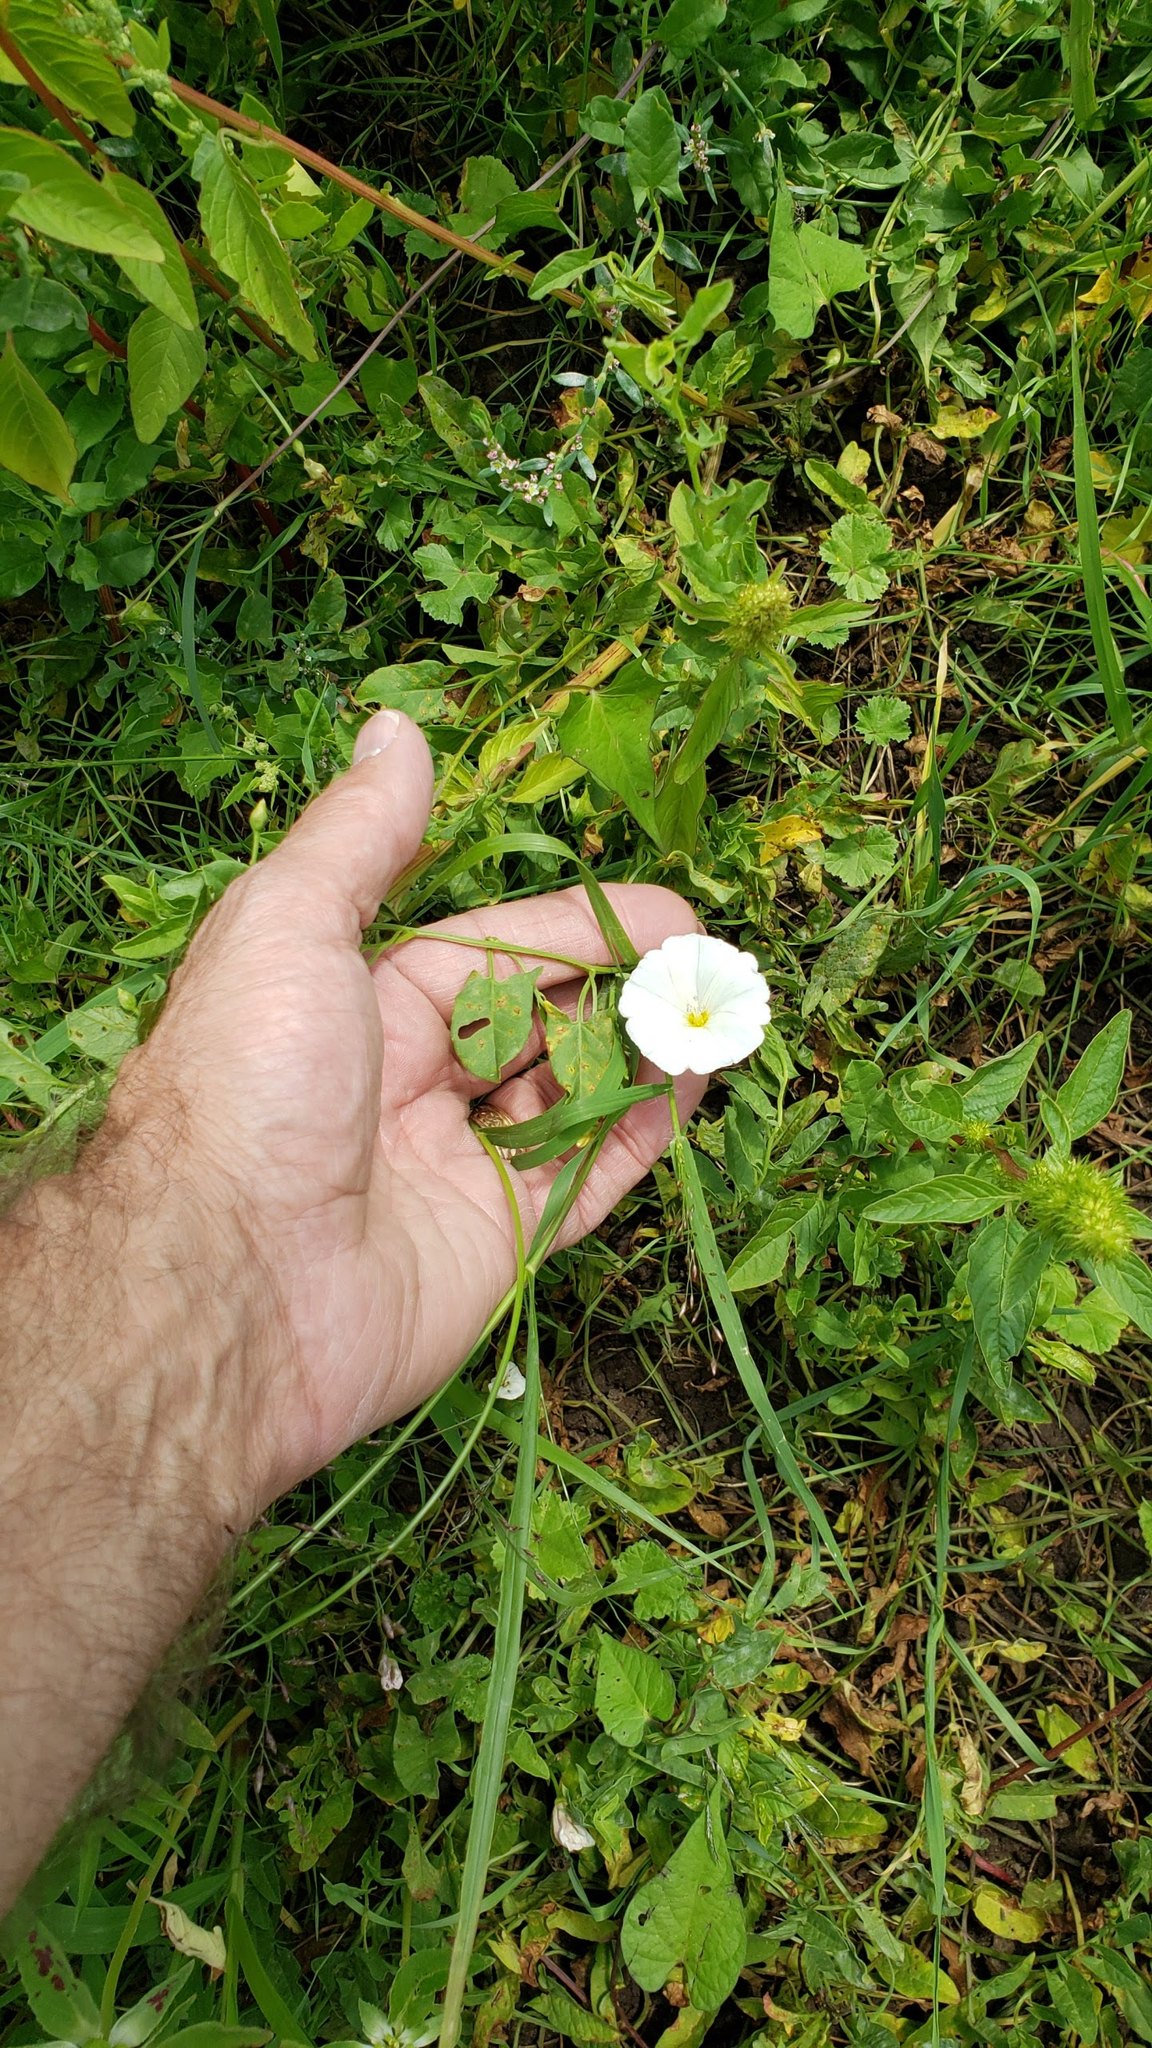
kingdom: Plantae
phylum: Tracheophyta
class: Magnoliopsida
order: Solanales
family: Convolvulaceae
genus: Convolvulus
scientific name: Convolvulus arvensis
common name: Field bindweed
